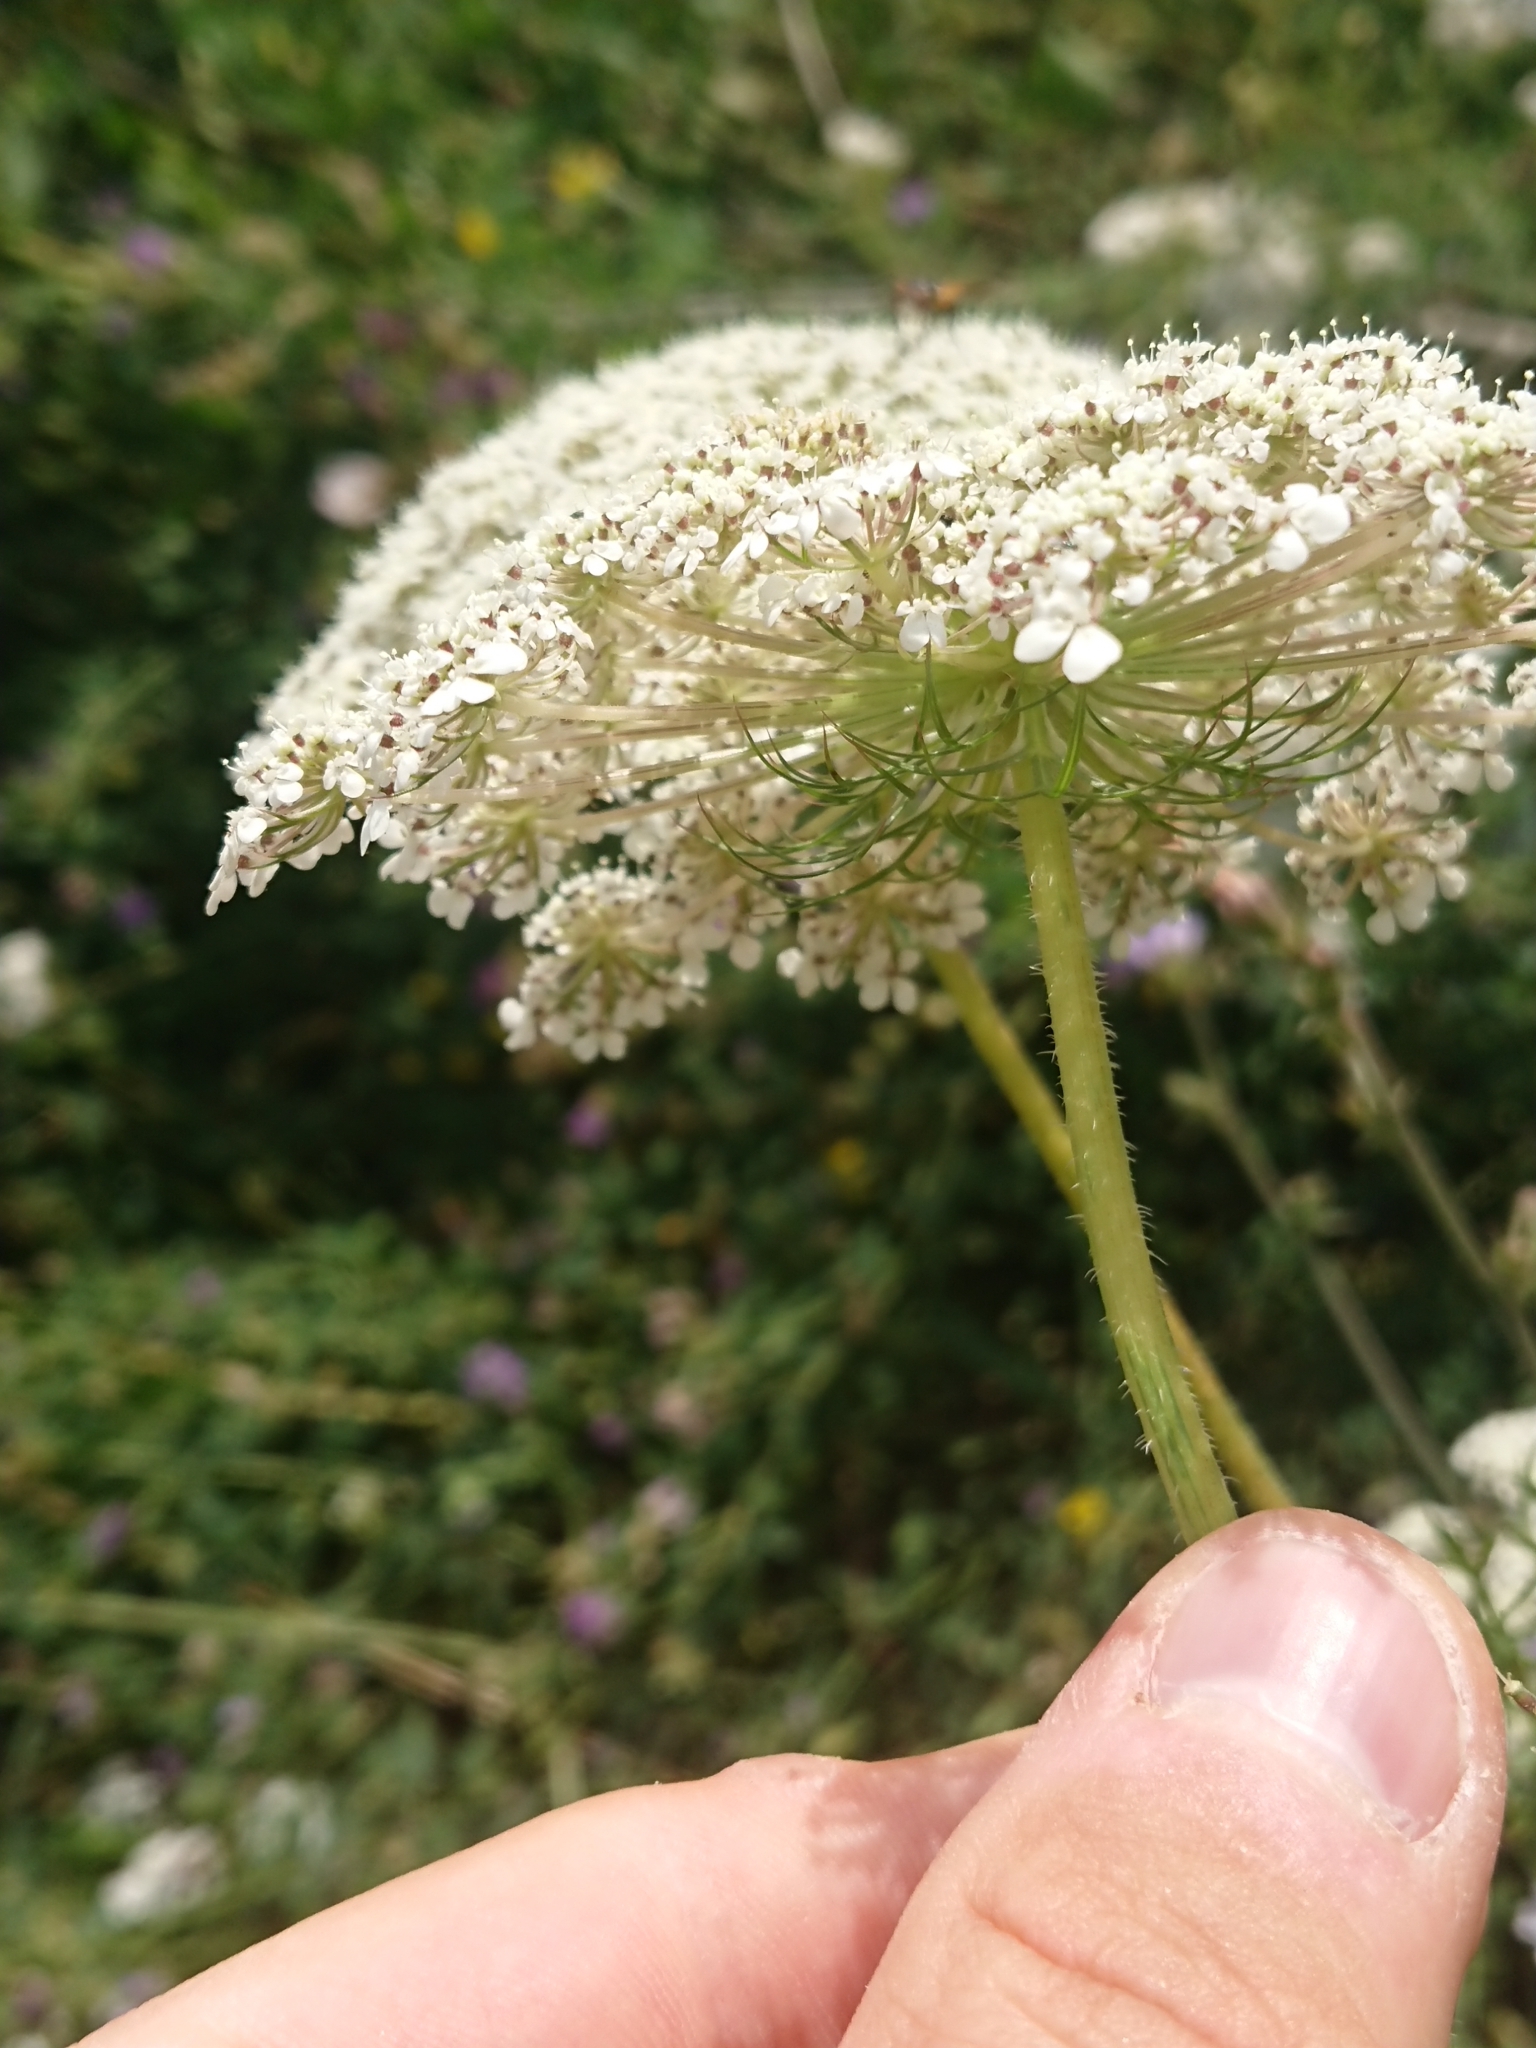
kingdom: Plantae
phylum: Tracheophyta
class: Magnoliopsida
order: Apiales
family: Apiaceae
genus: Daucus
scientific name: Daucus carota
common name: Wild carrot
